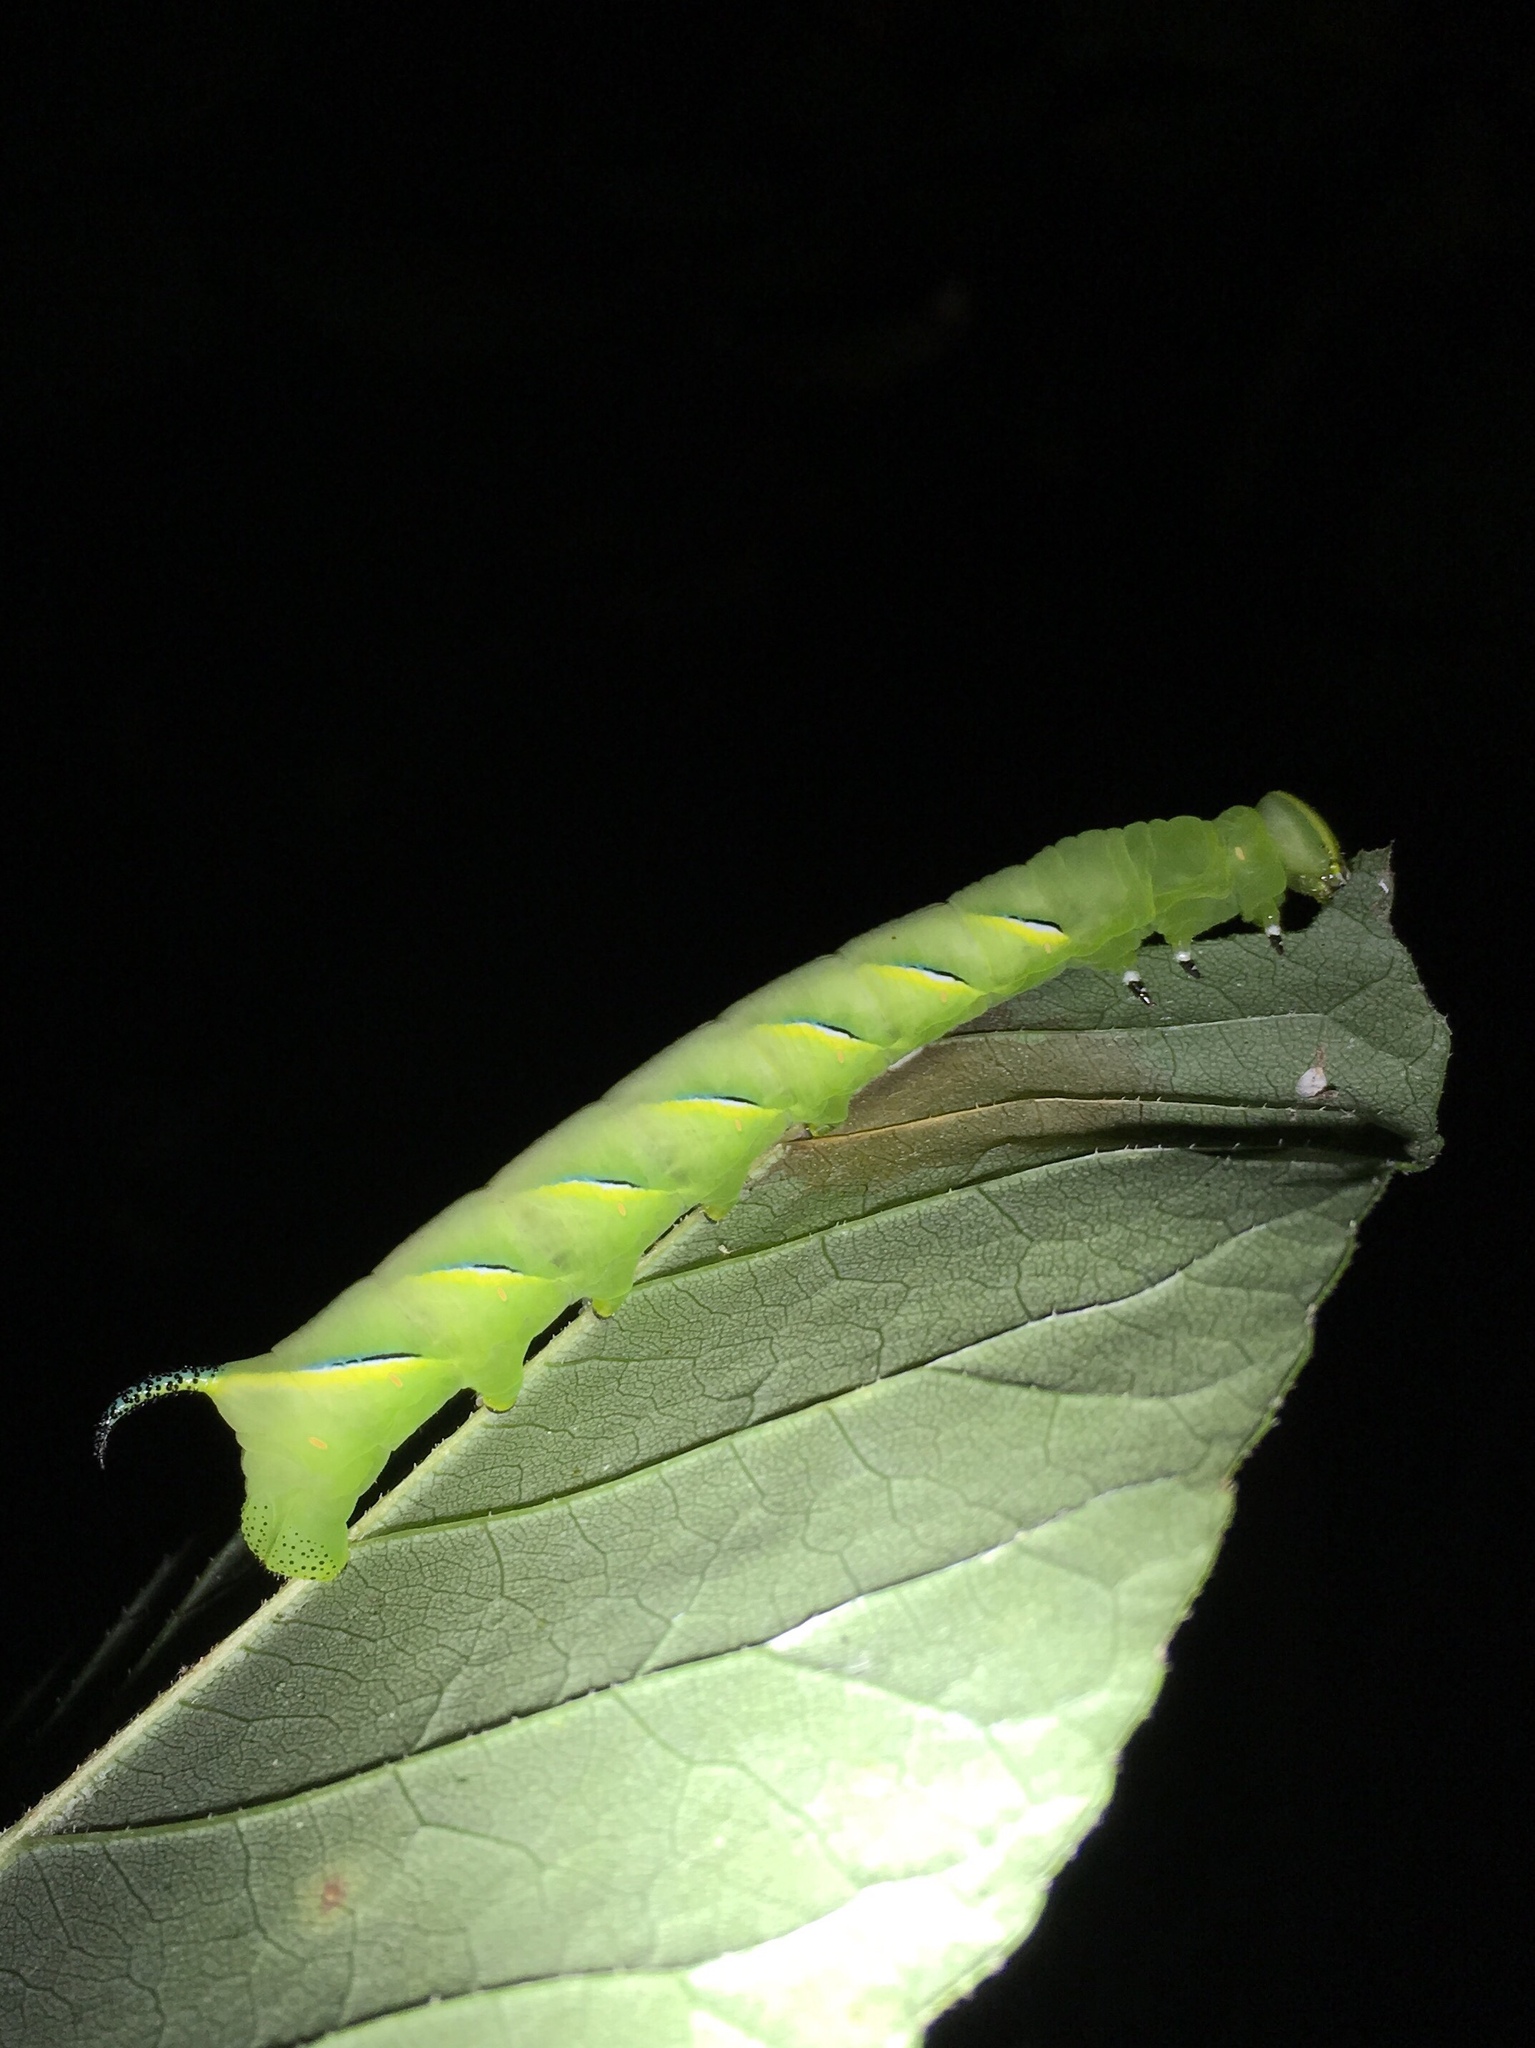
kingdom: Animalia
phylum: Arthropoda
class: Insecta
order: Lepidoptera
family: Sphingidae
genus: Sphinx
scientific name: Sphinx kalmiae
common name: Laurel sphinx
